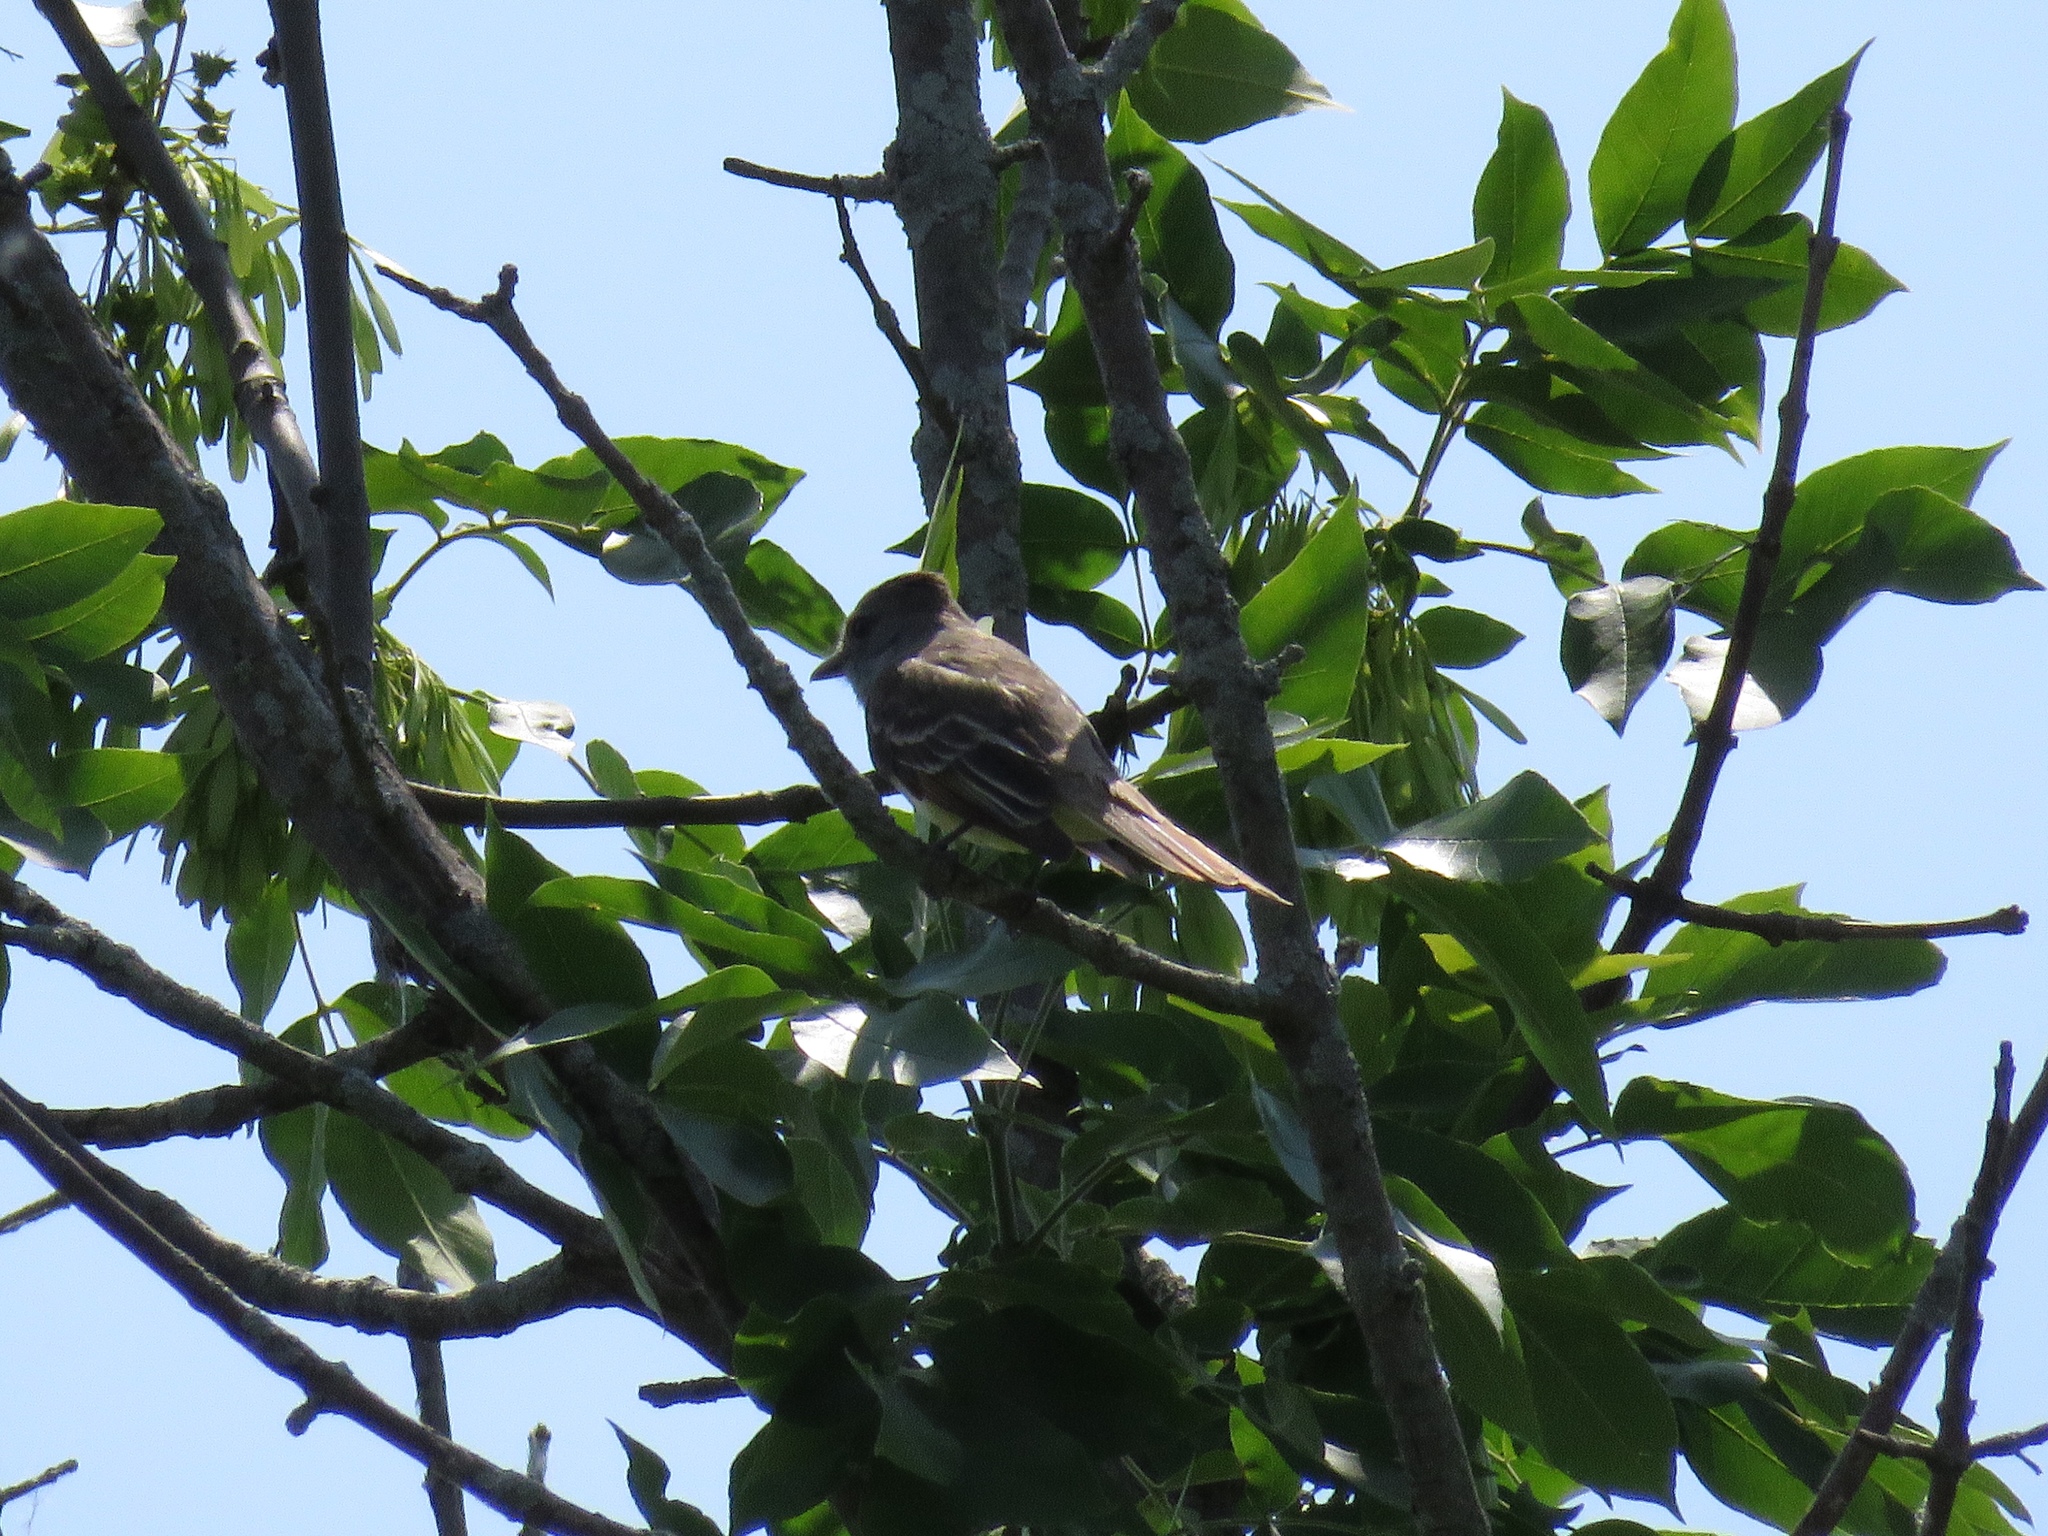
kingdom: Animalia
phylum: Chordata
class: Aves
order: Passeriformes
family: Tyrannidae
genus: Myiarchus
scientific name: Myiarchus crinitus
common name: Great crested flycatcher
